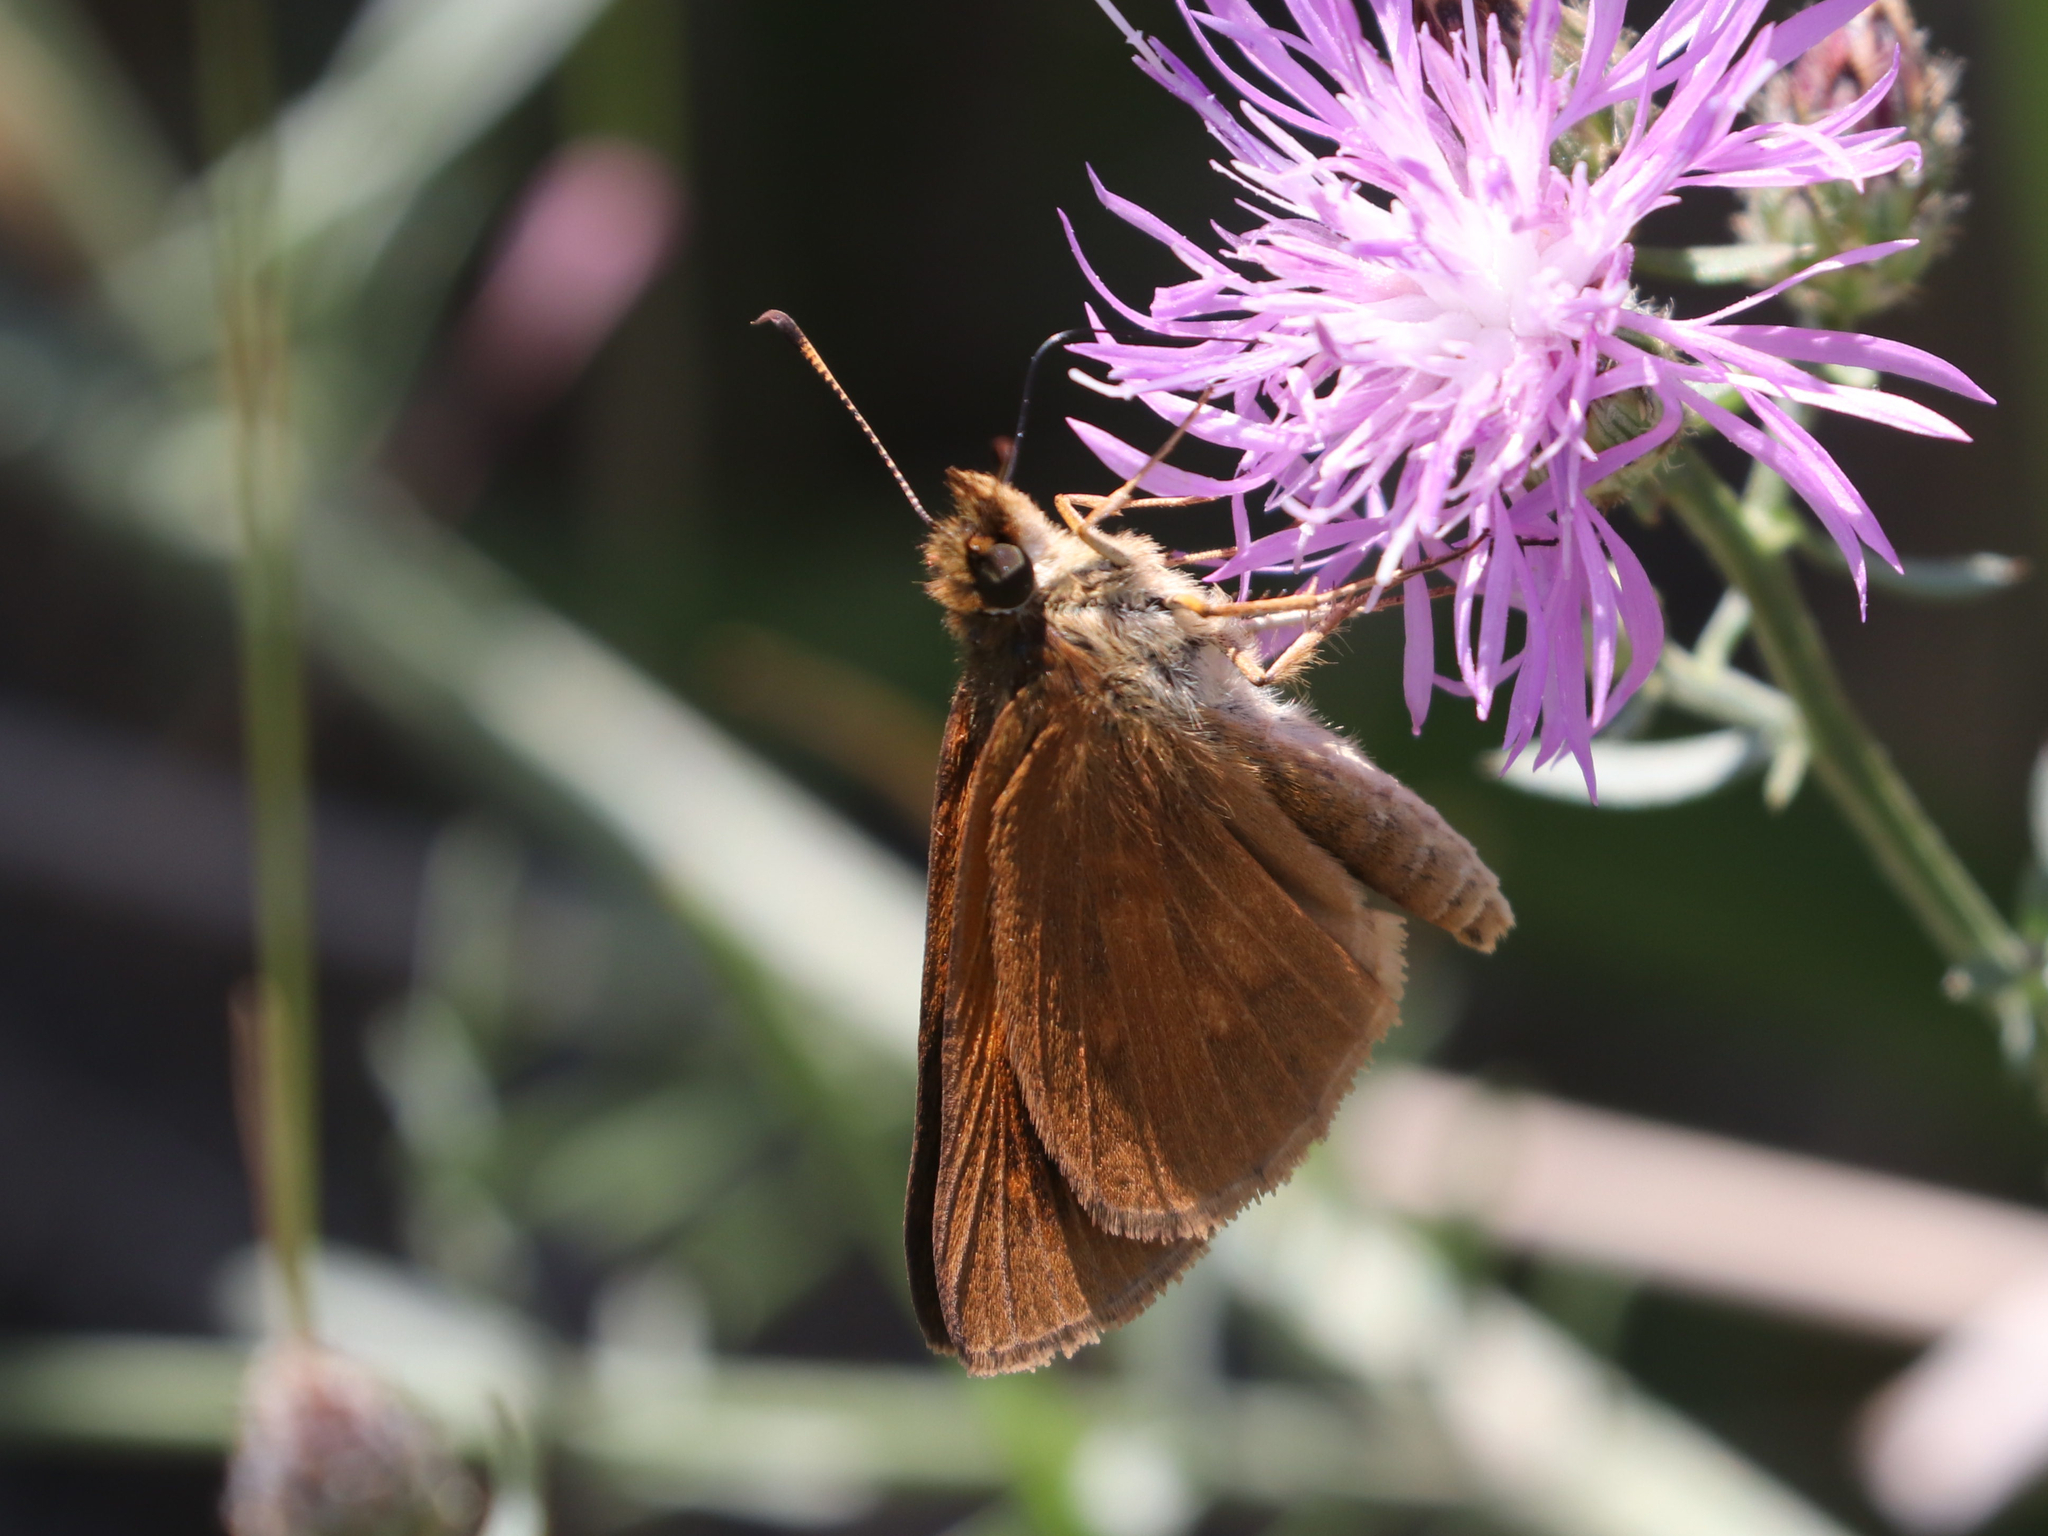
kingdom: Animalia
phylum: Arthropoda
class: Insecta
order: Lepidoptera
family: Hesperiidae
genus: Atalopedes
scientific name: Atalopedes
